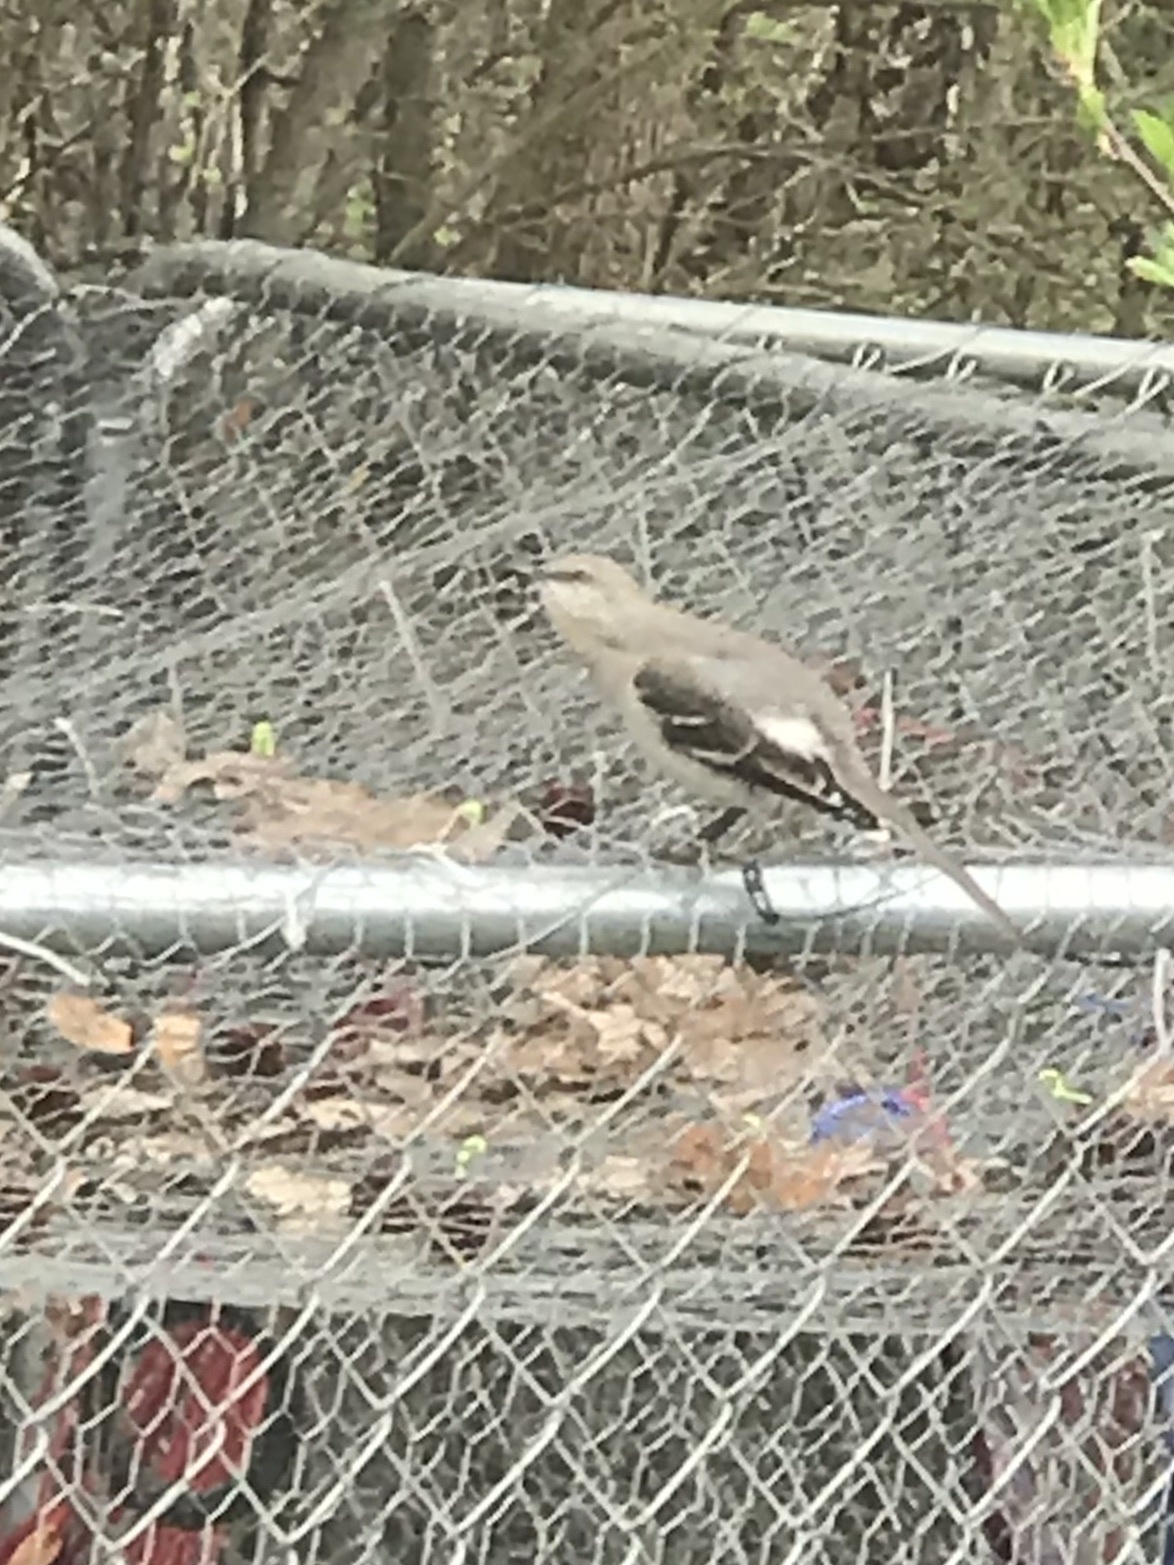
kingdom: Animalia
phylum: Chordata
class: Aves
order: Passeriformes
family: Mimidae
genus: Mimus
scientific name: Mimus polyglottos
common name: Northern mockingbird
